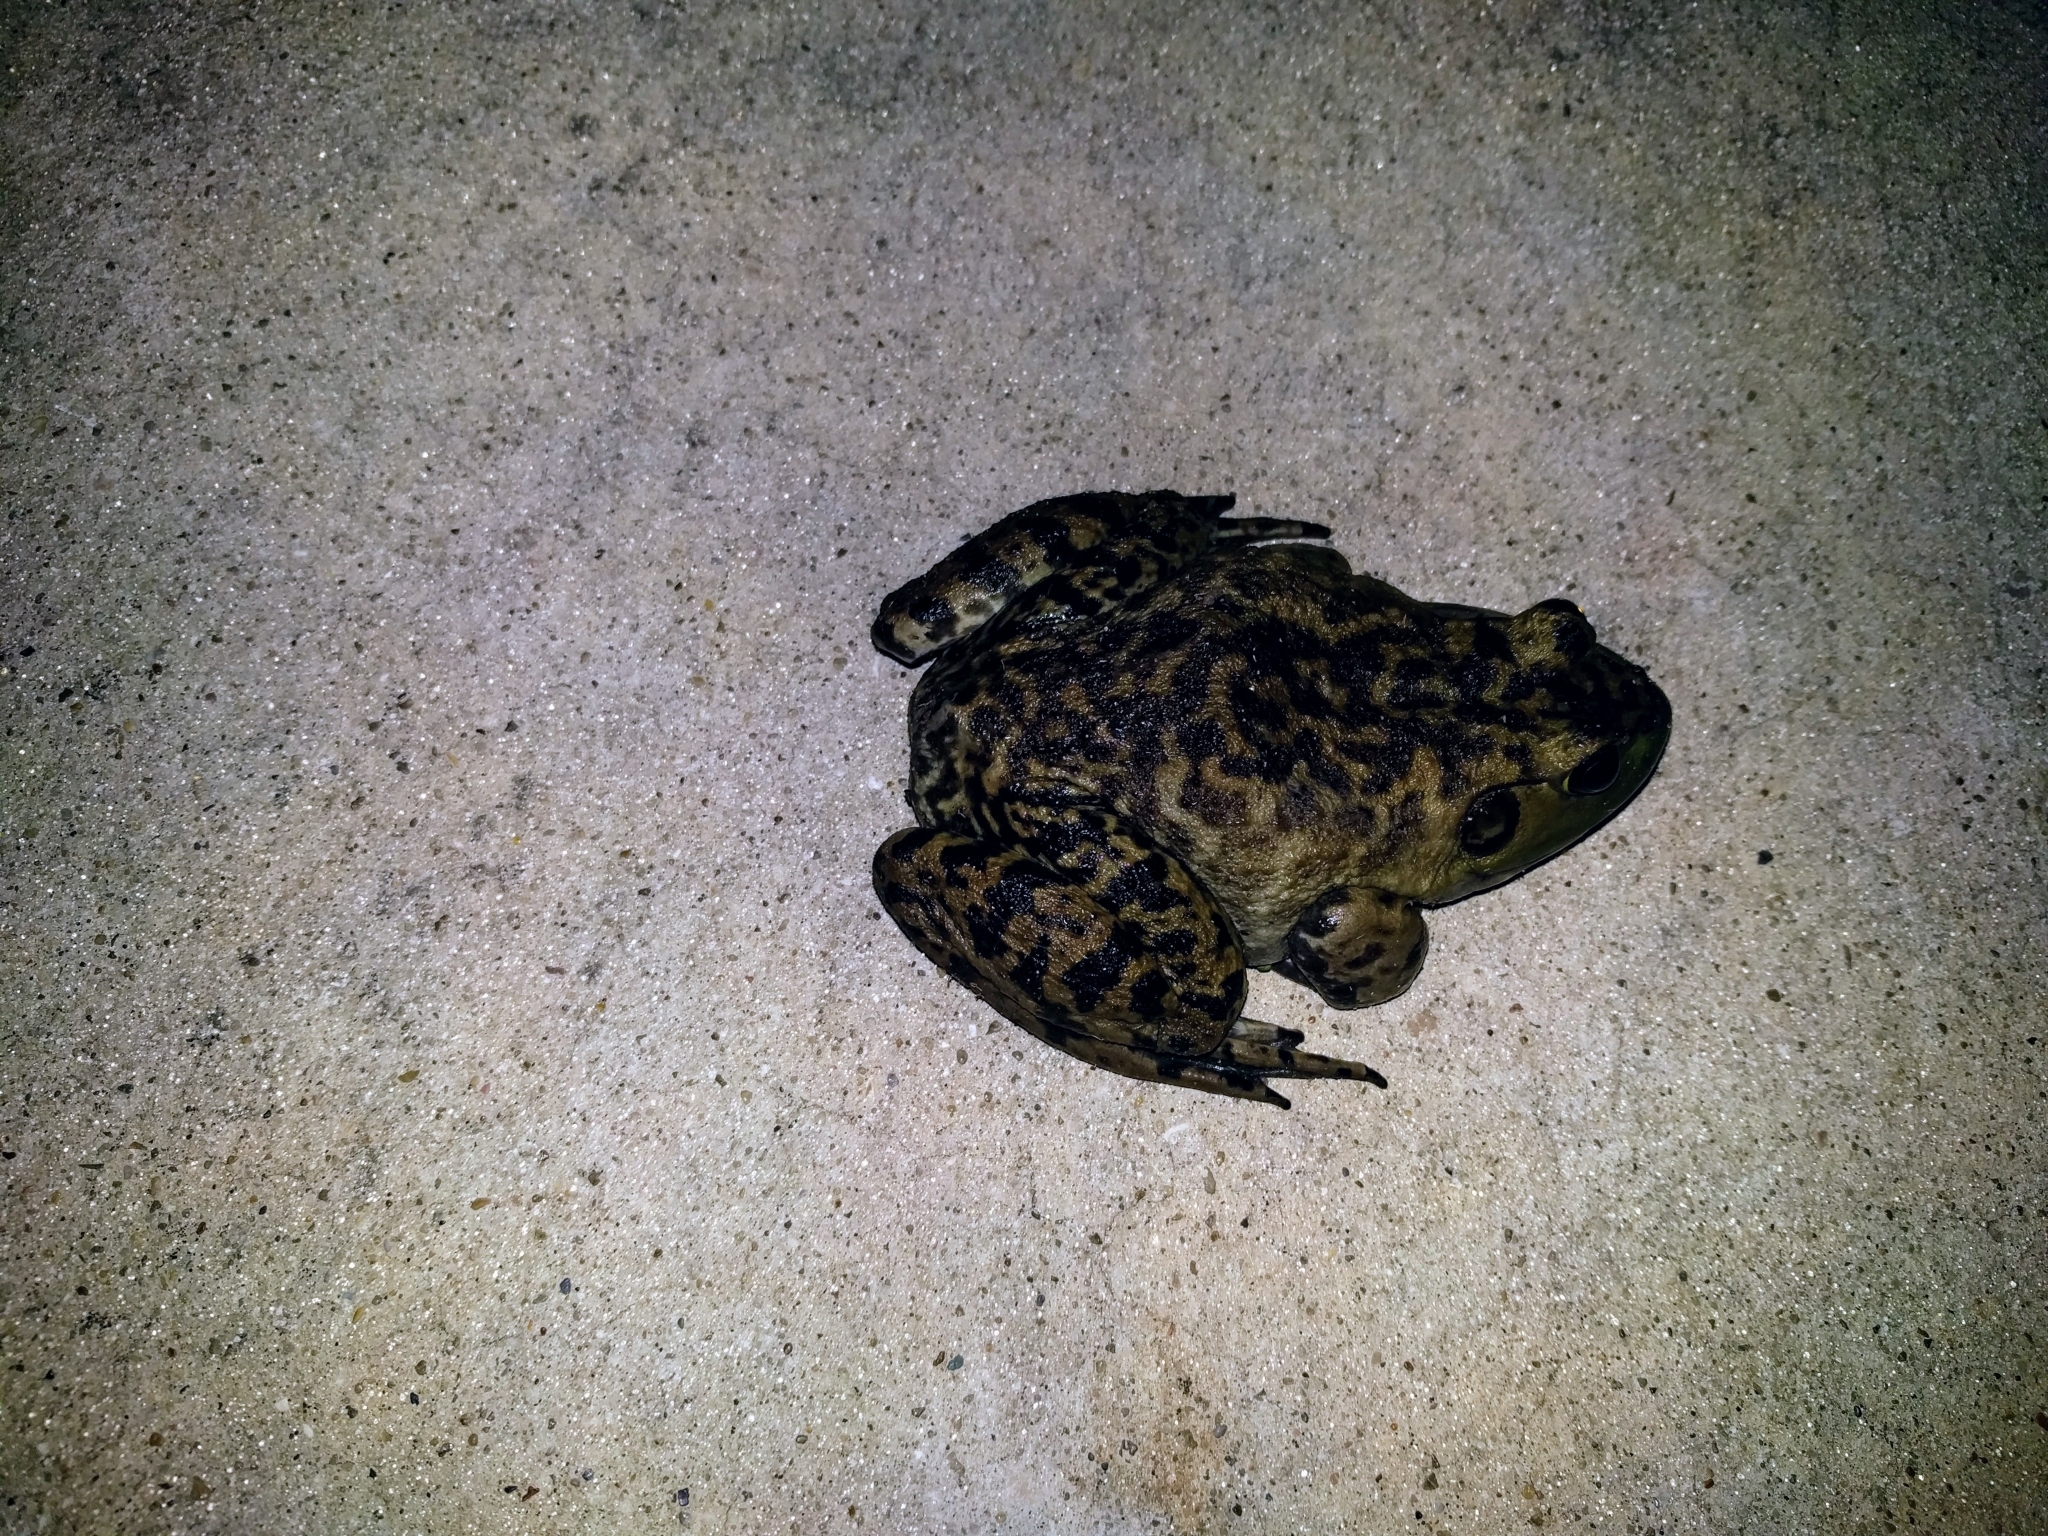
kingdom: Animalia
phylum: Chordata
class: Amphibia
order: Anura
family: Ranidae
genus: Lithobates
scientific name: Lithobates catesbeianus
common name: American bullfrog
